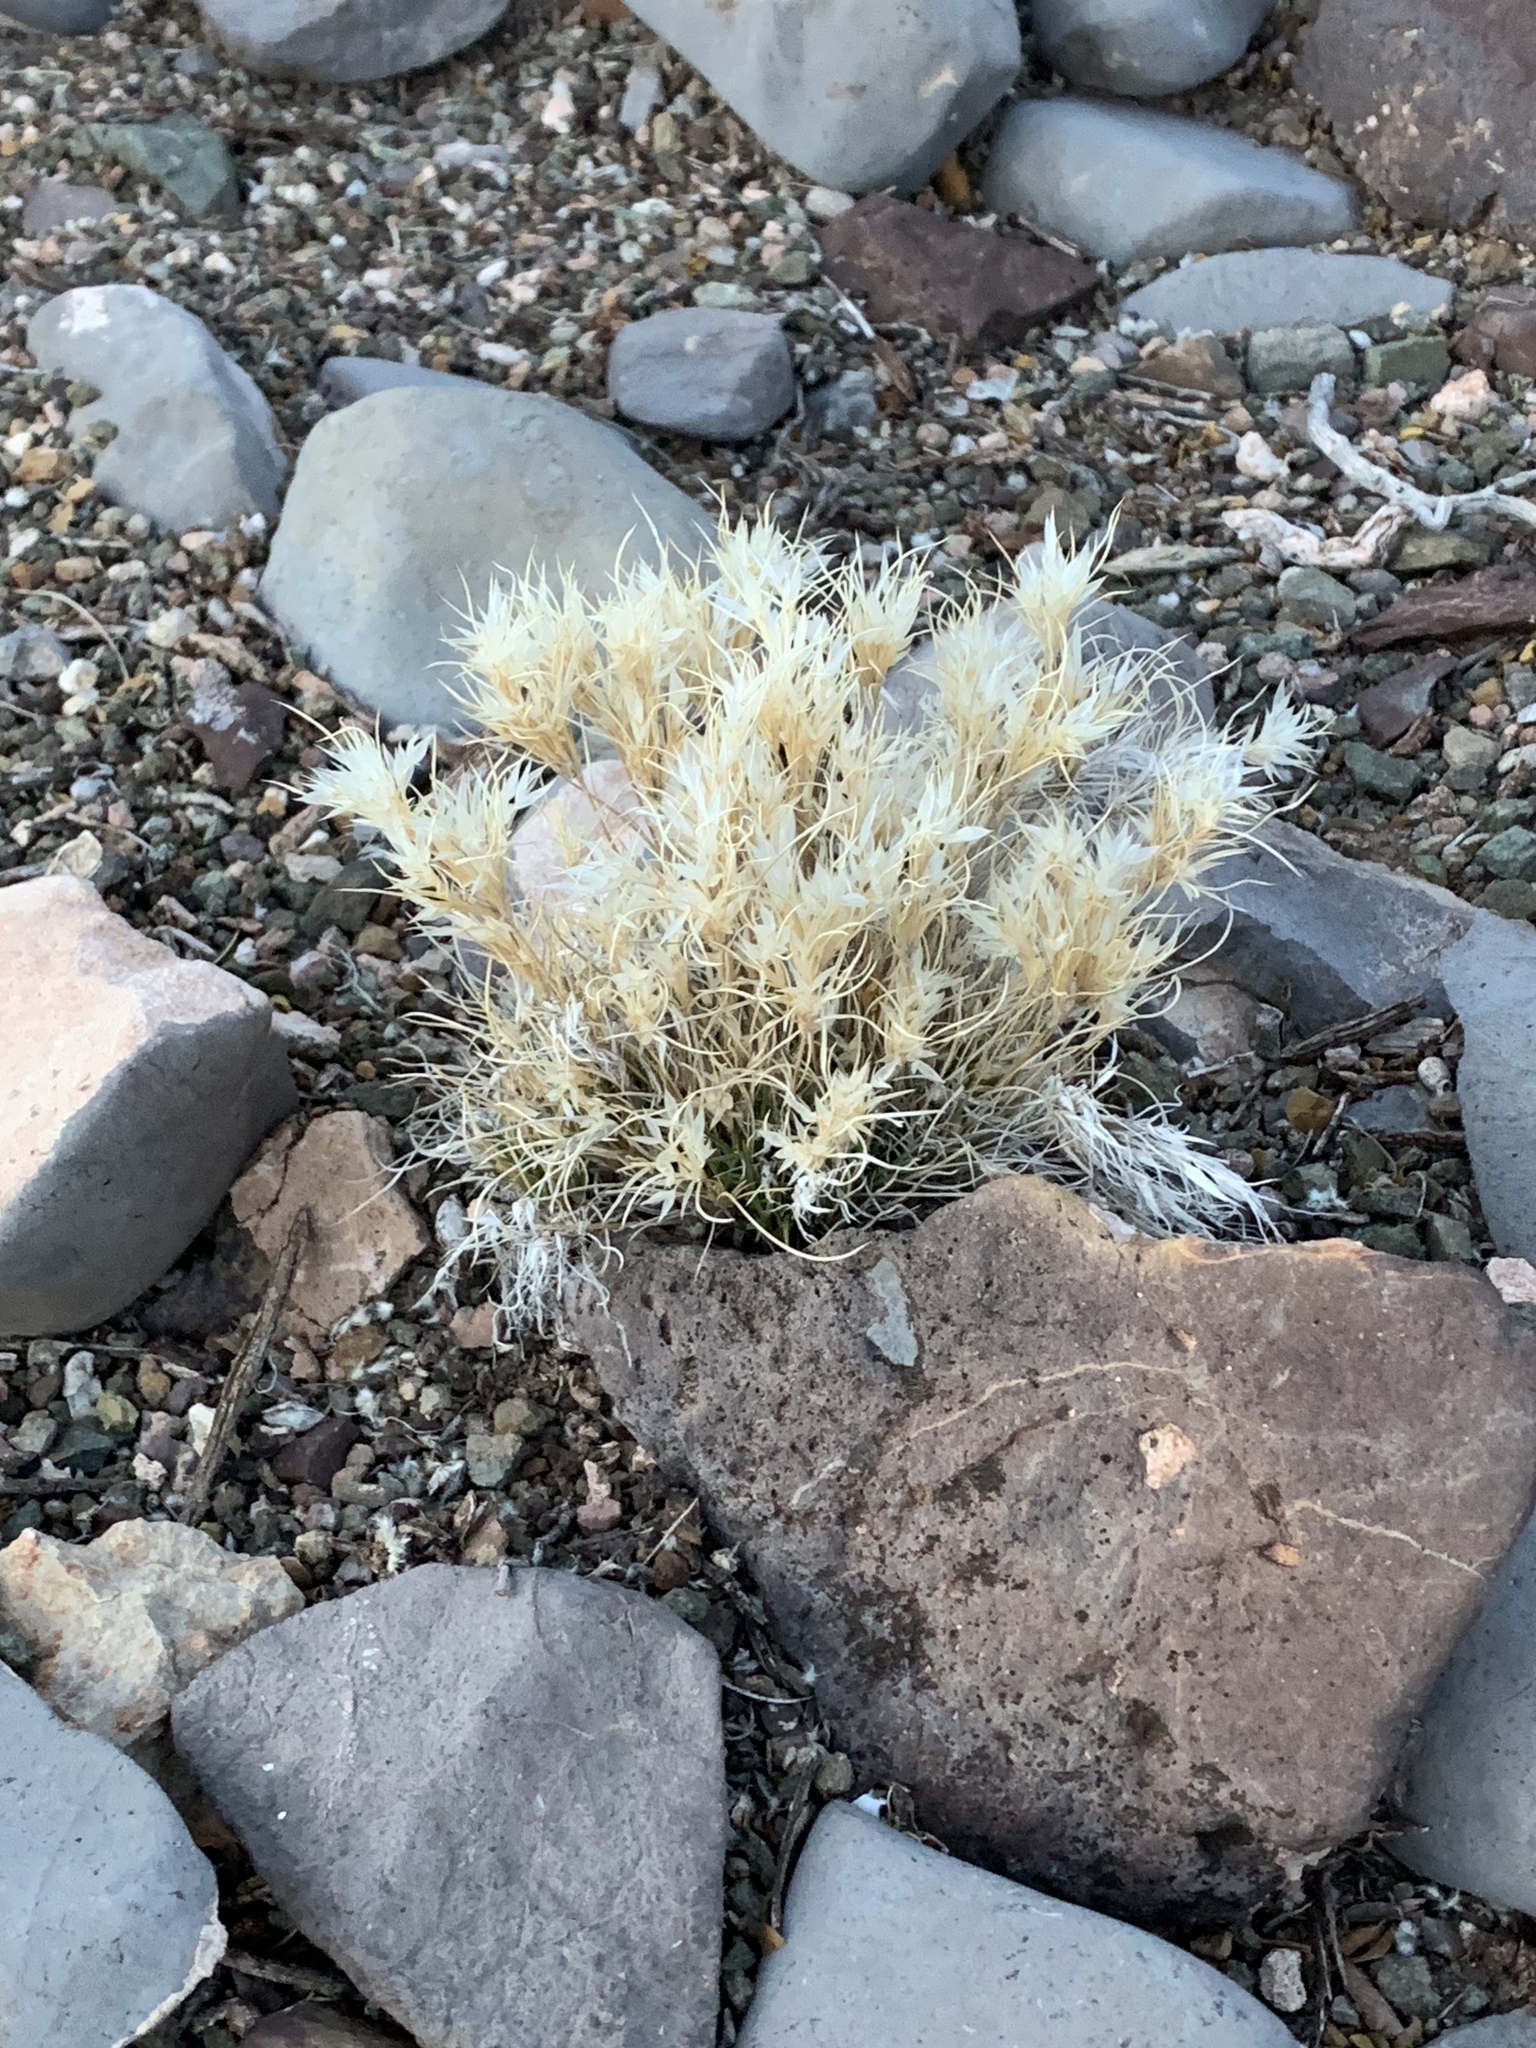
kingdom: Plantae
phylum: Tracheophyta
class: Liliopsida
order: Poales
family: Poaceae
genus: Dasyochloa
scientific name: Dasyochloa pulchella
